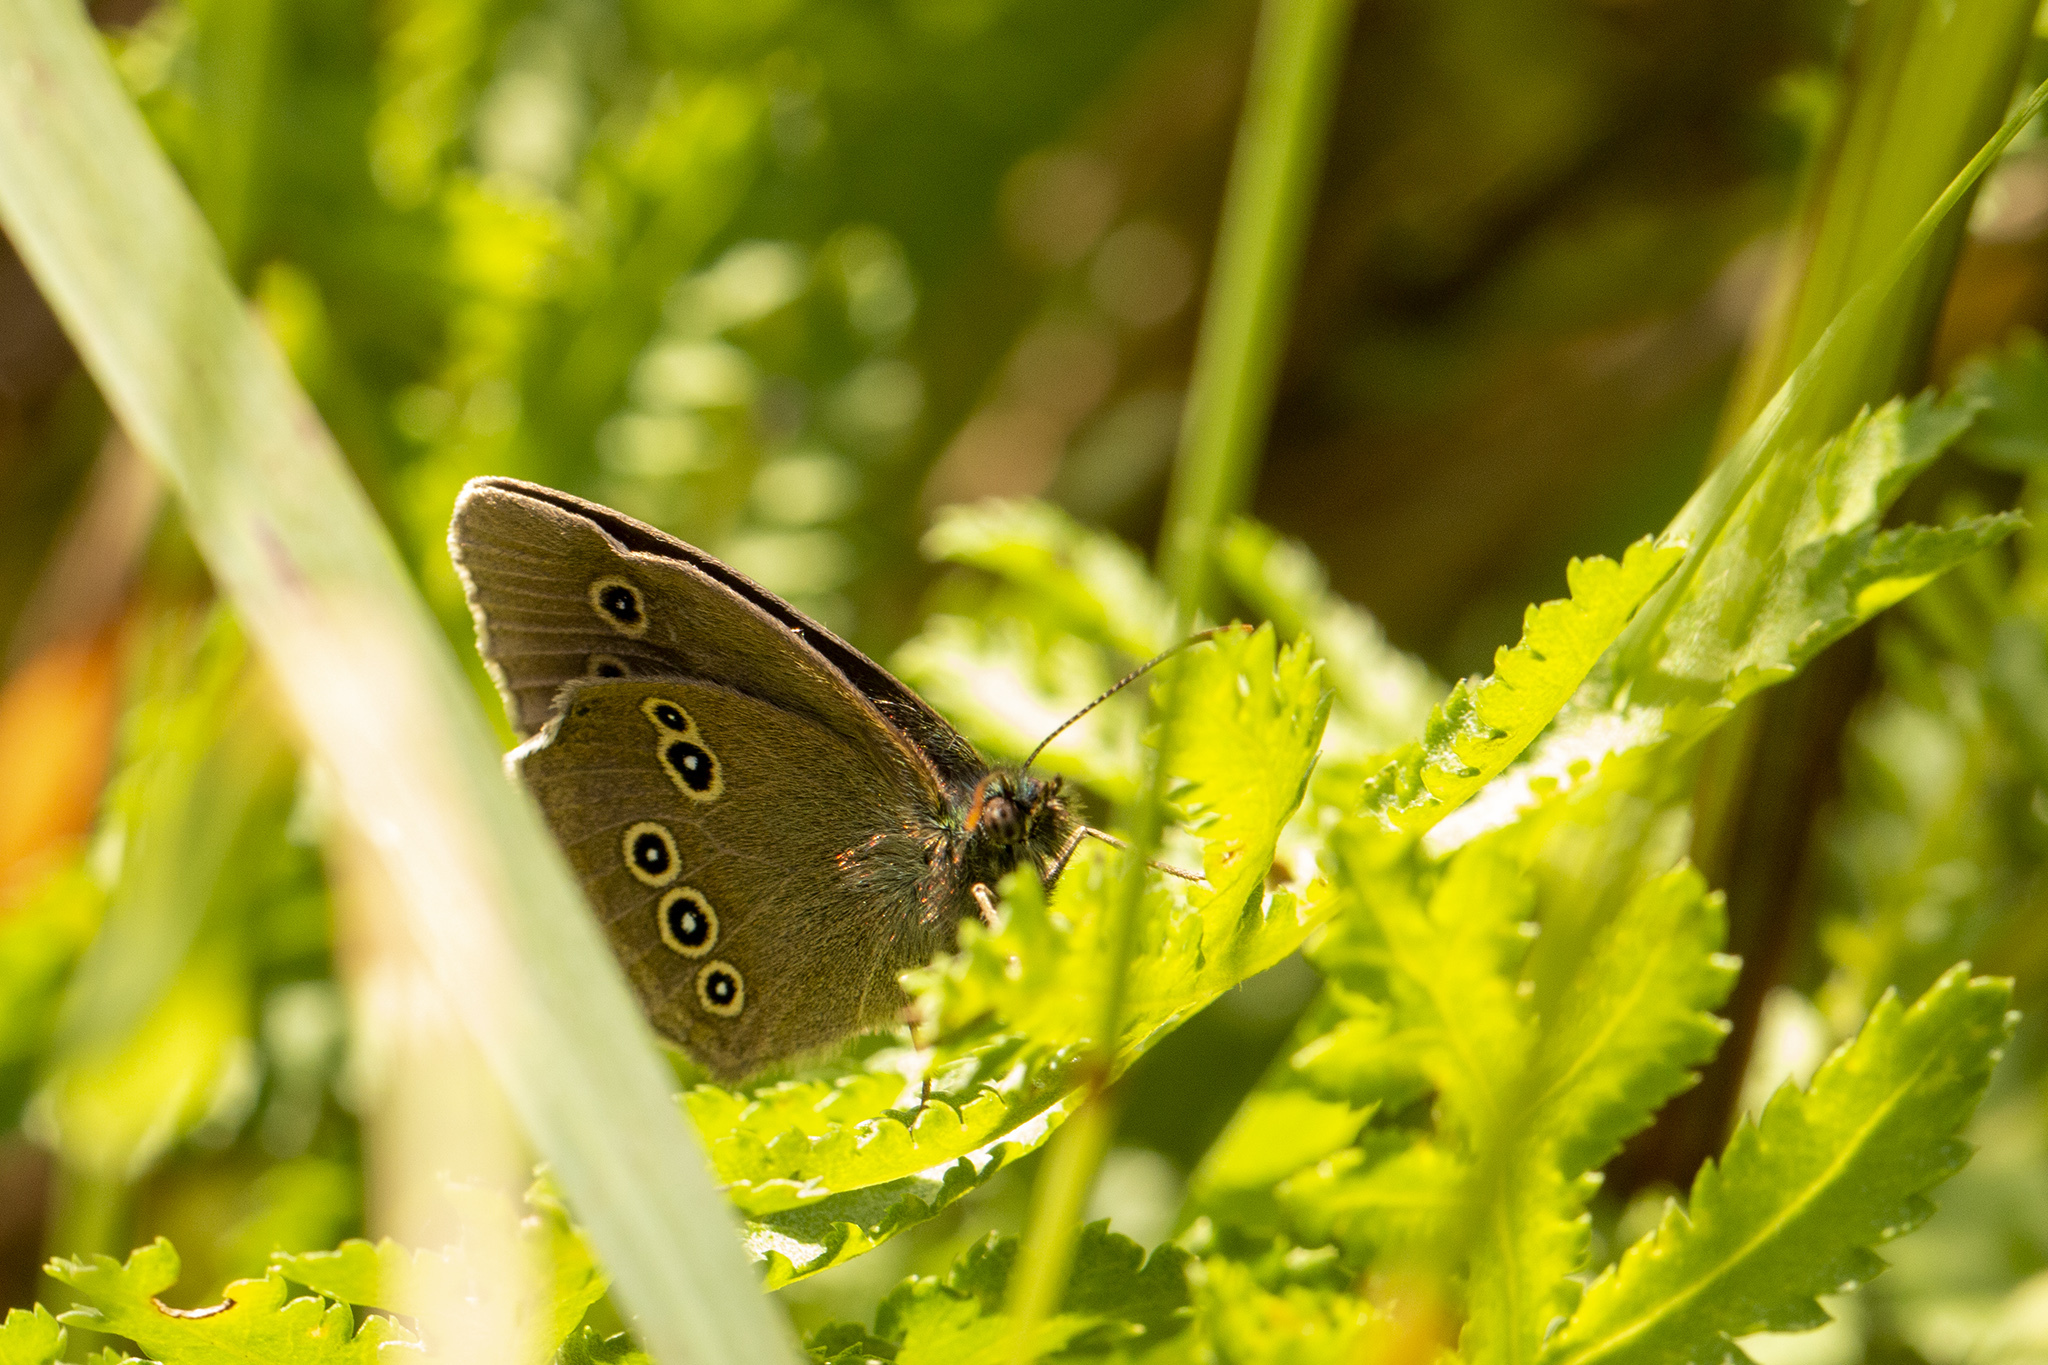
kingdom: Animalia
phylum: Arthropoda
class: Insecta
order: Lepidoptera
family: Nymphalidae
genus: Aphantopus
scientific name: Aphantopus hyperantus
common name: Ringlet
